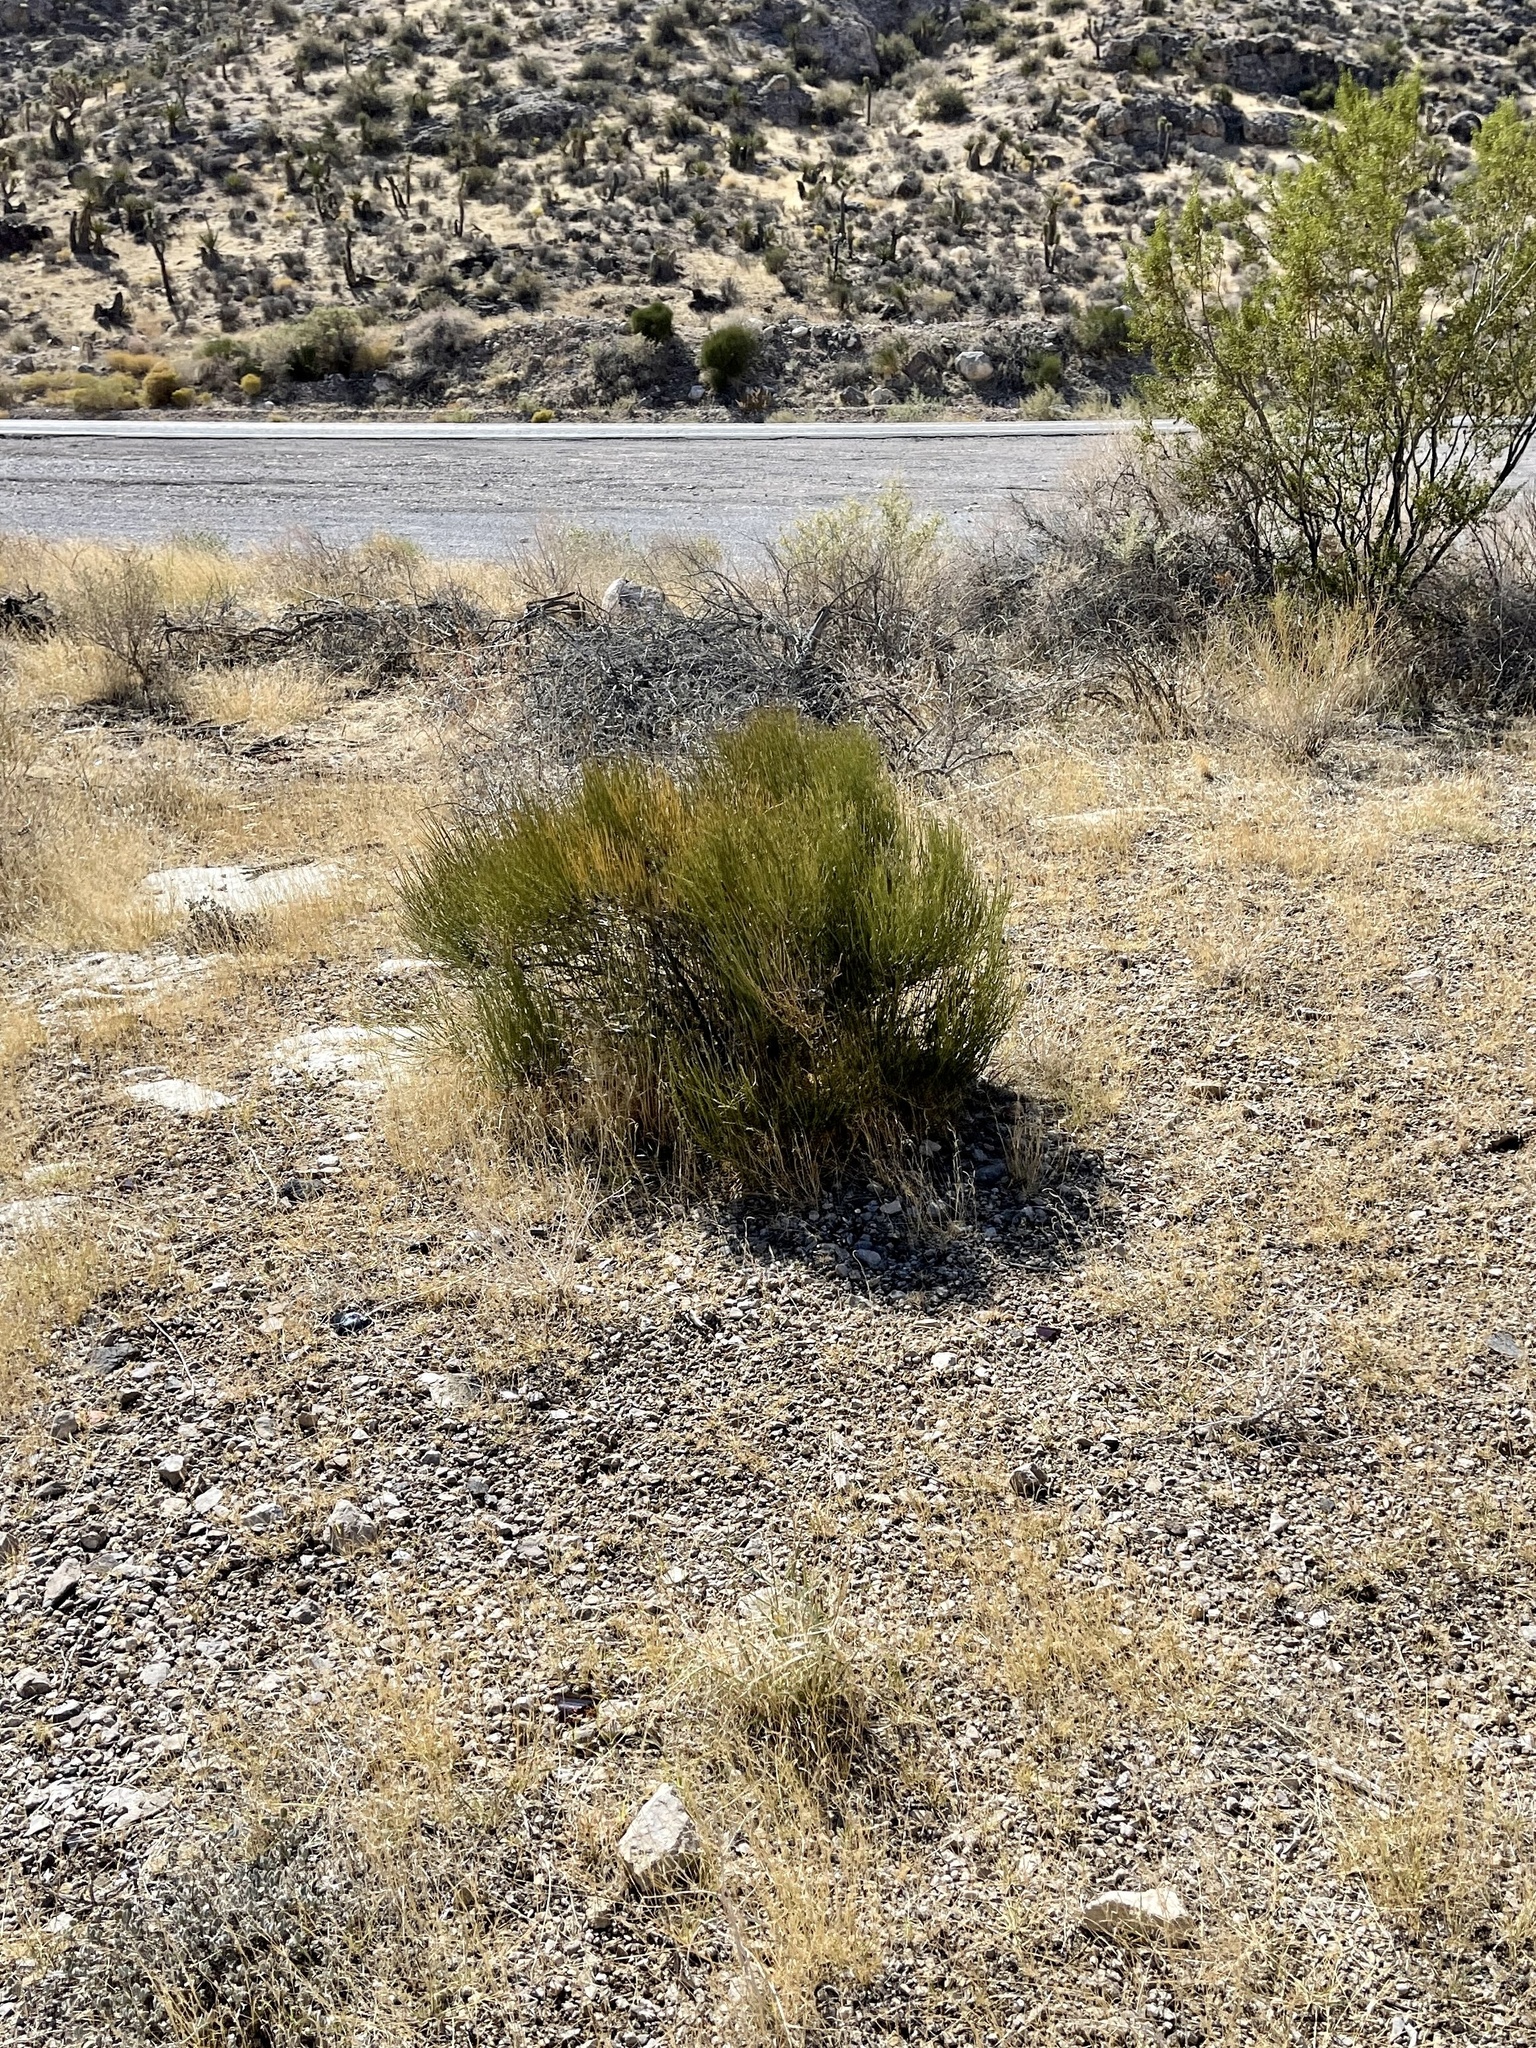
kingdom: Plantae
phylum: Tracheophyta
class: Gnetopsida
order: Ephedrales
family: Ephedraceae
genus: Ephedra
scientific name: Ephedra viridis
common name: Green ephedra
